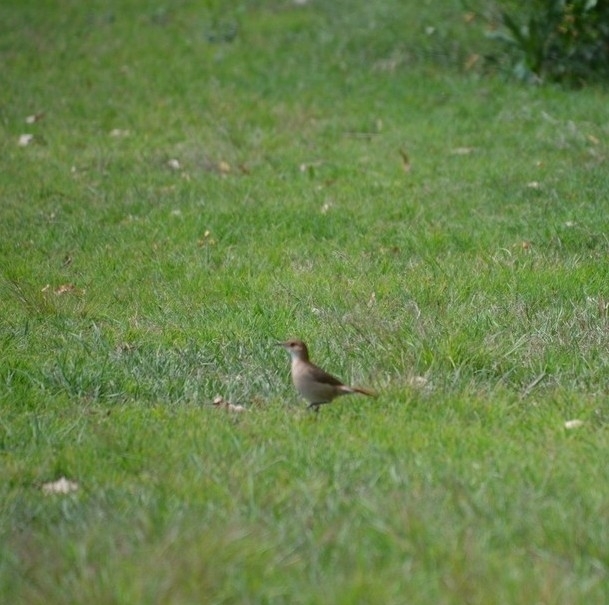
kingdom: Animalia
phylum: Chordata
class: Aves
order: Passeriformes
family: Furnariidae
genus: Furnarius
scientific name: Furnarius rufus
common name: Rufous hornero
